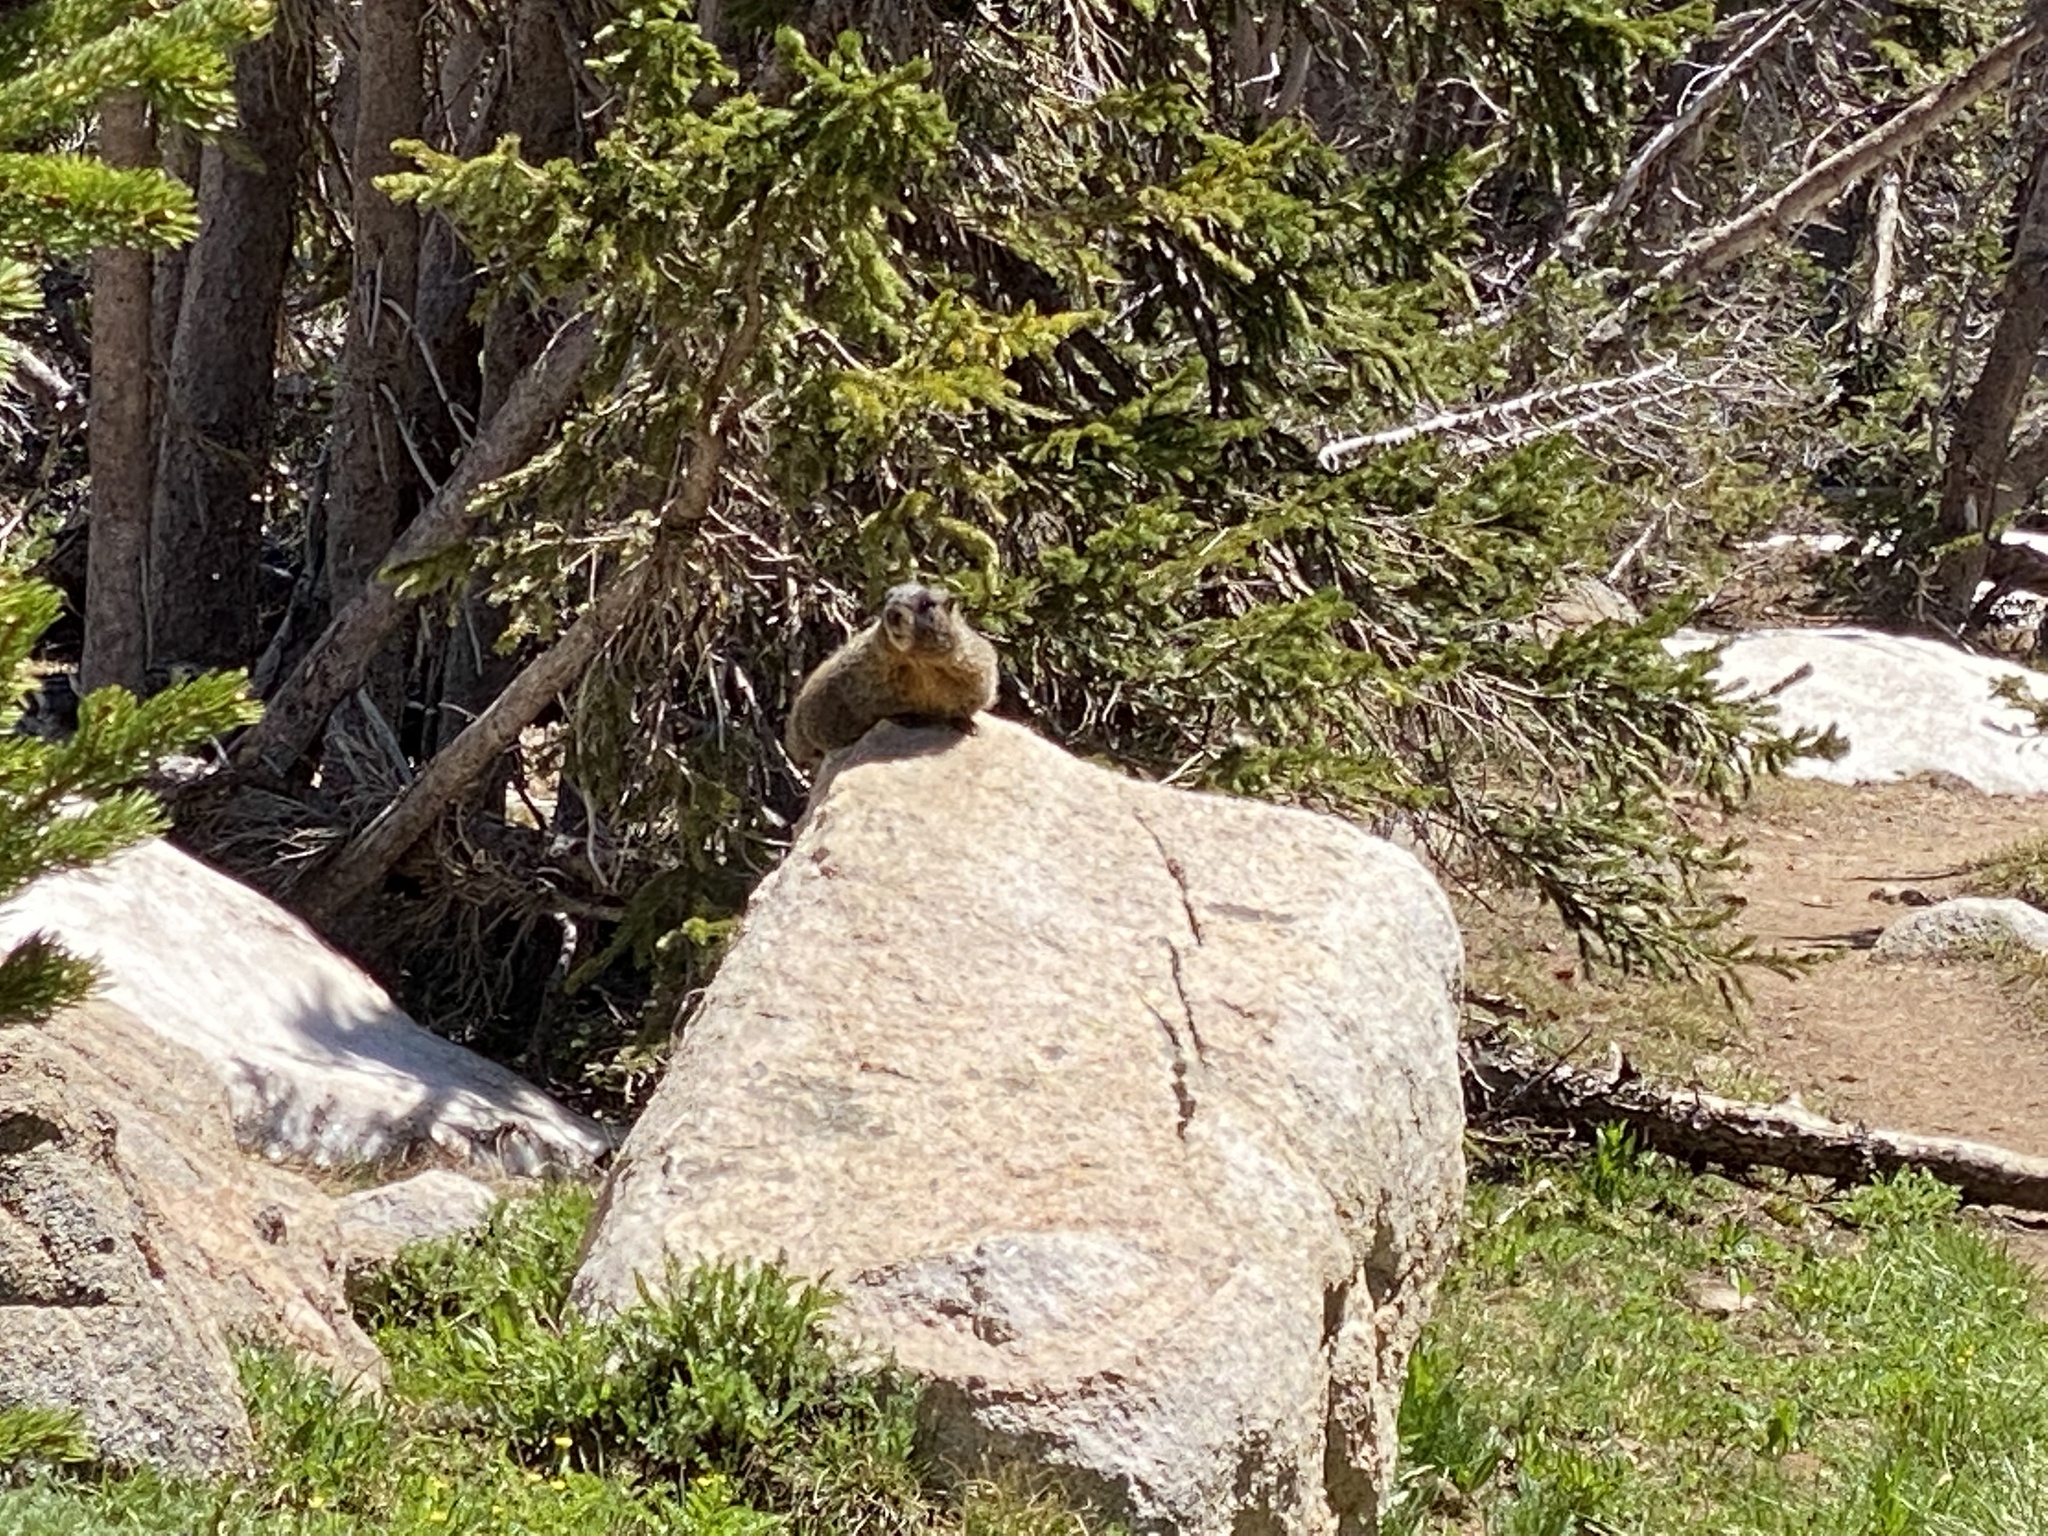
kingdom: Animalia
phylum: Chordata
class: Mammalia
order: Rodentia
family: Sciuridae
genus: Marmota
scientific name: Marmota flaviventris
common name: Yellow-bellied marmot
